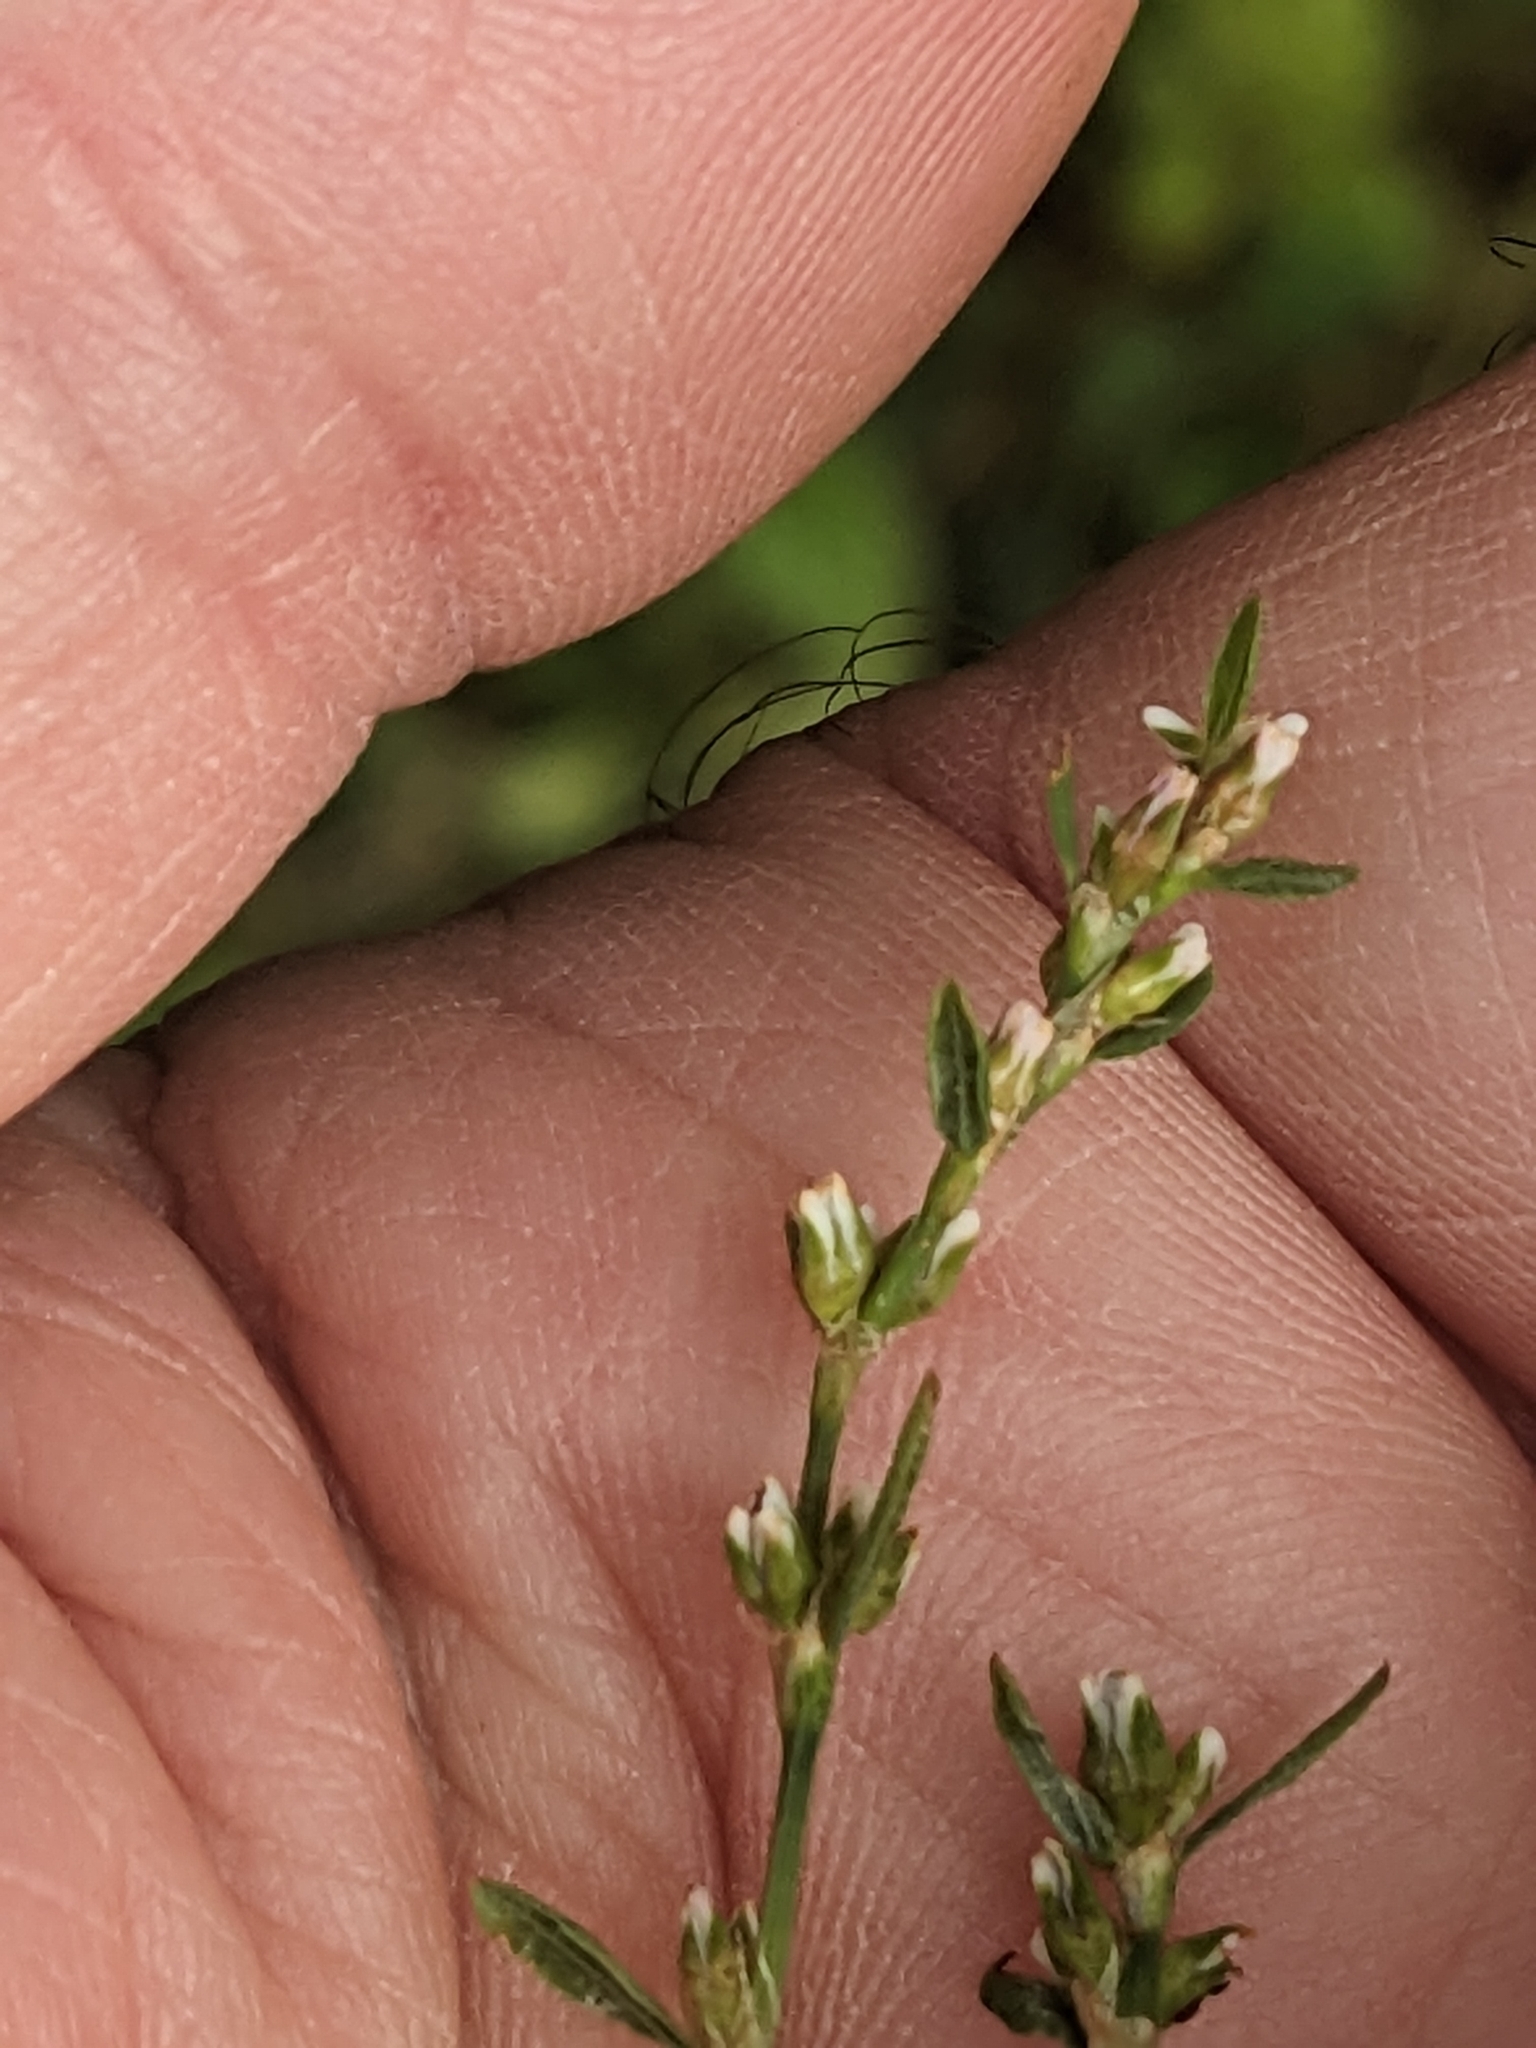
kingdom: Plantae
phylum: Tracheophyta
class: Magnoliopsida
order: Caryophyllales
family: Polygonaceae
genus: Polygonum
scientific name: Polygonum aviculare
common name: Prostrate knotweed
